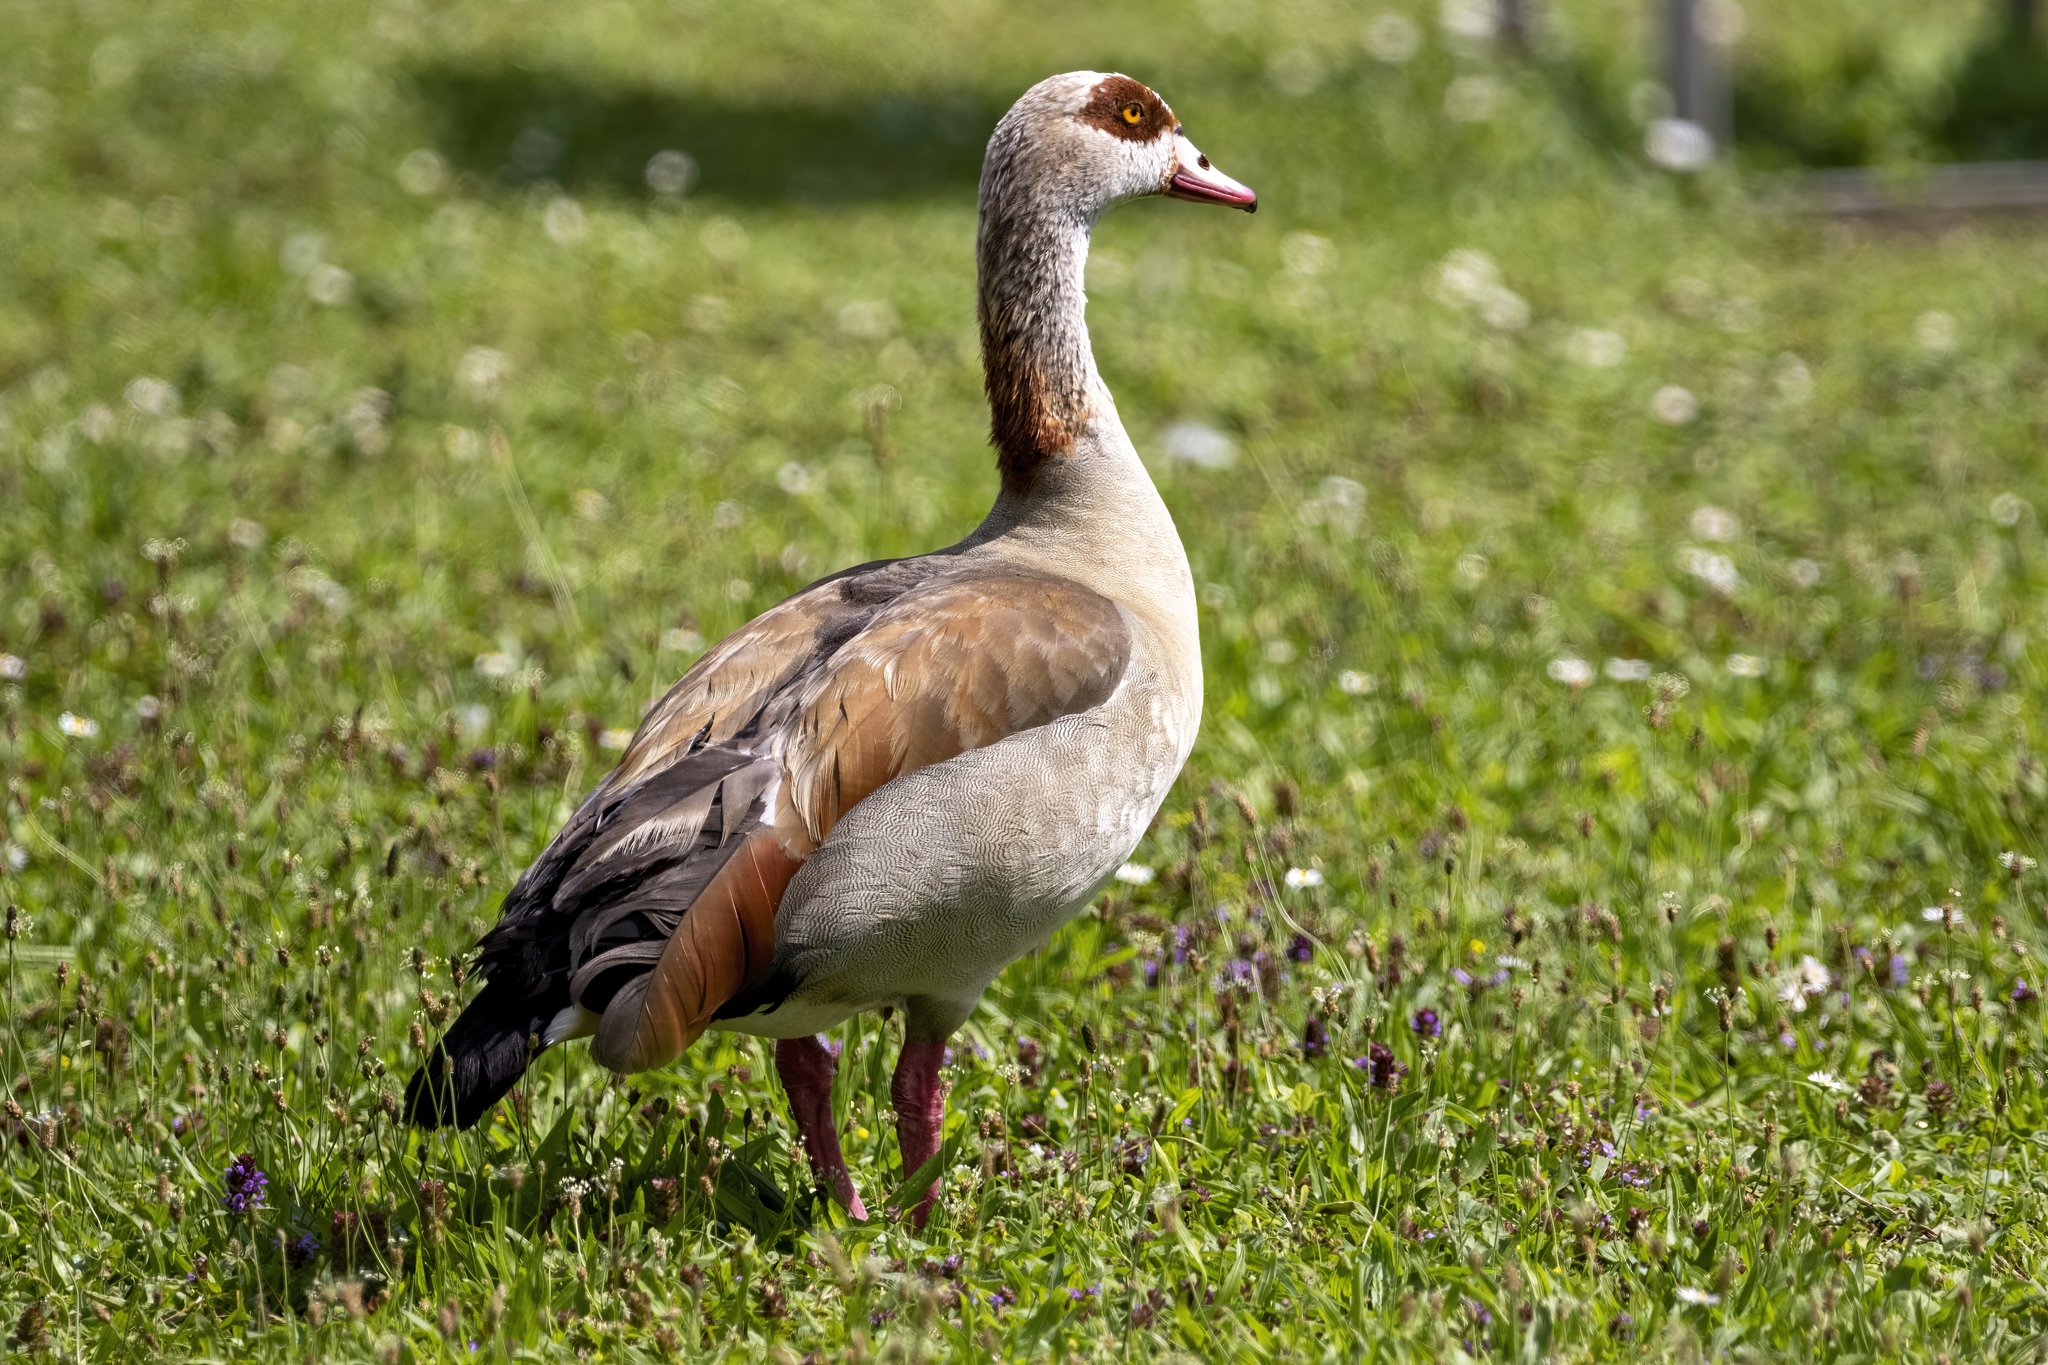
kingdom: Animalia
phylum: Chordata
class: Aves
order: Anseriformes
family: Anatidae
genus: Alopochen
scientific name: Alopochen aegyptiaca
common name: Egyptian goose
